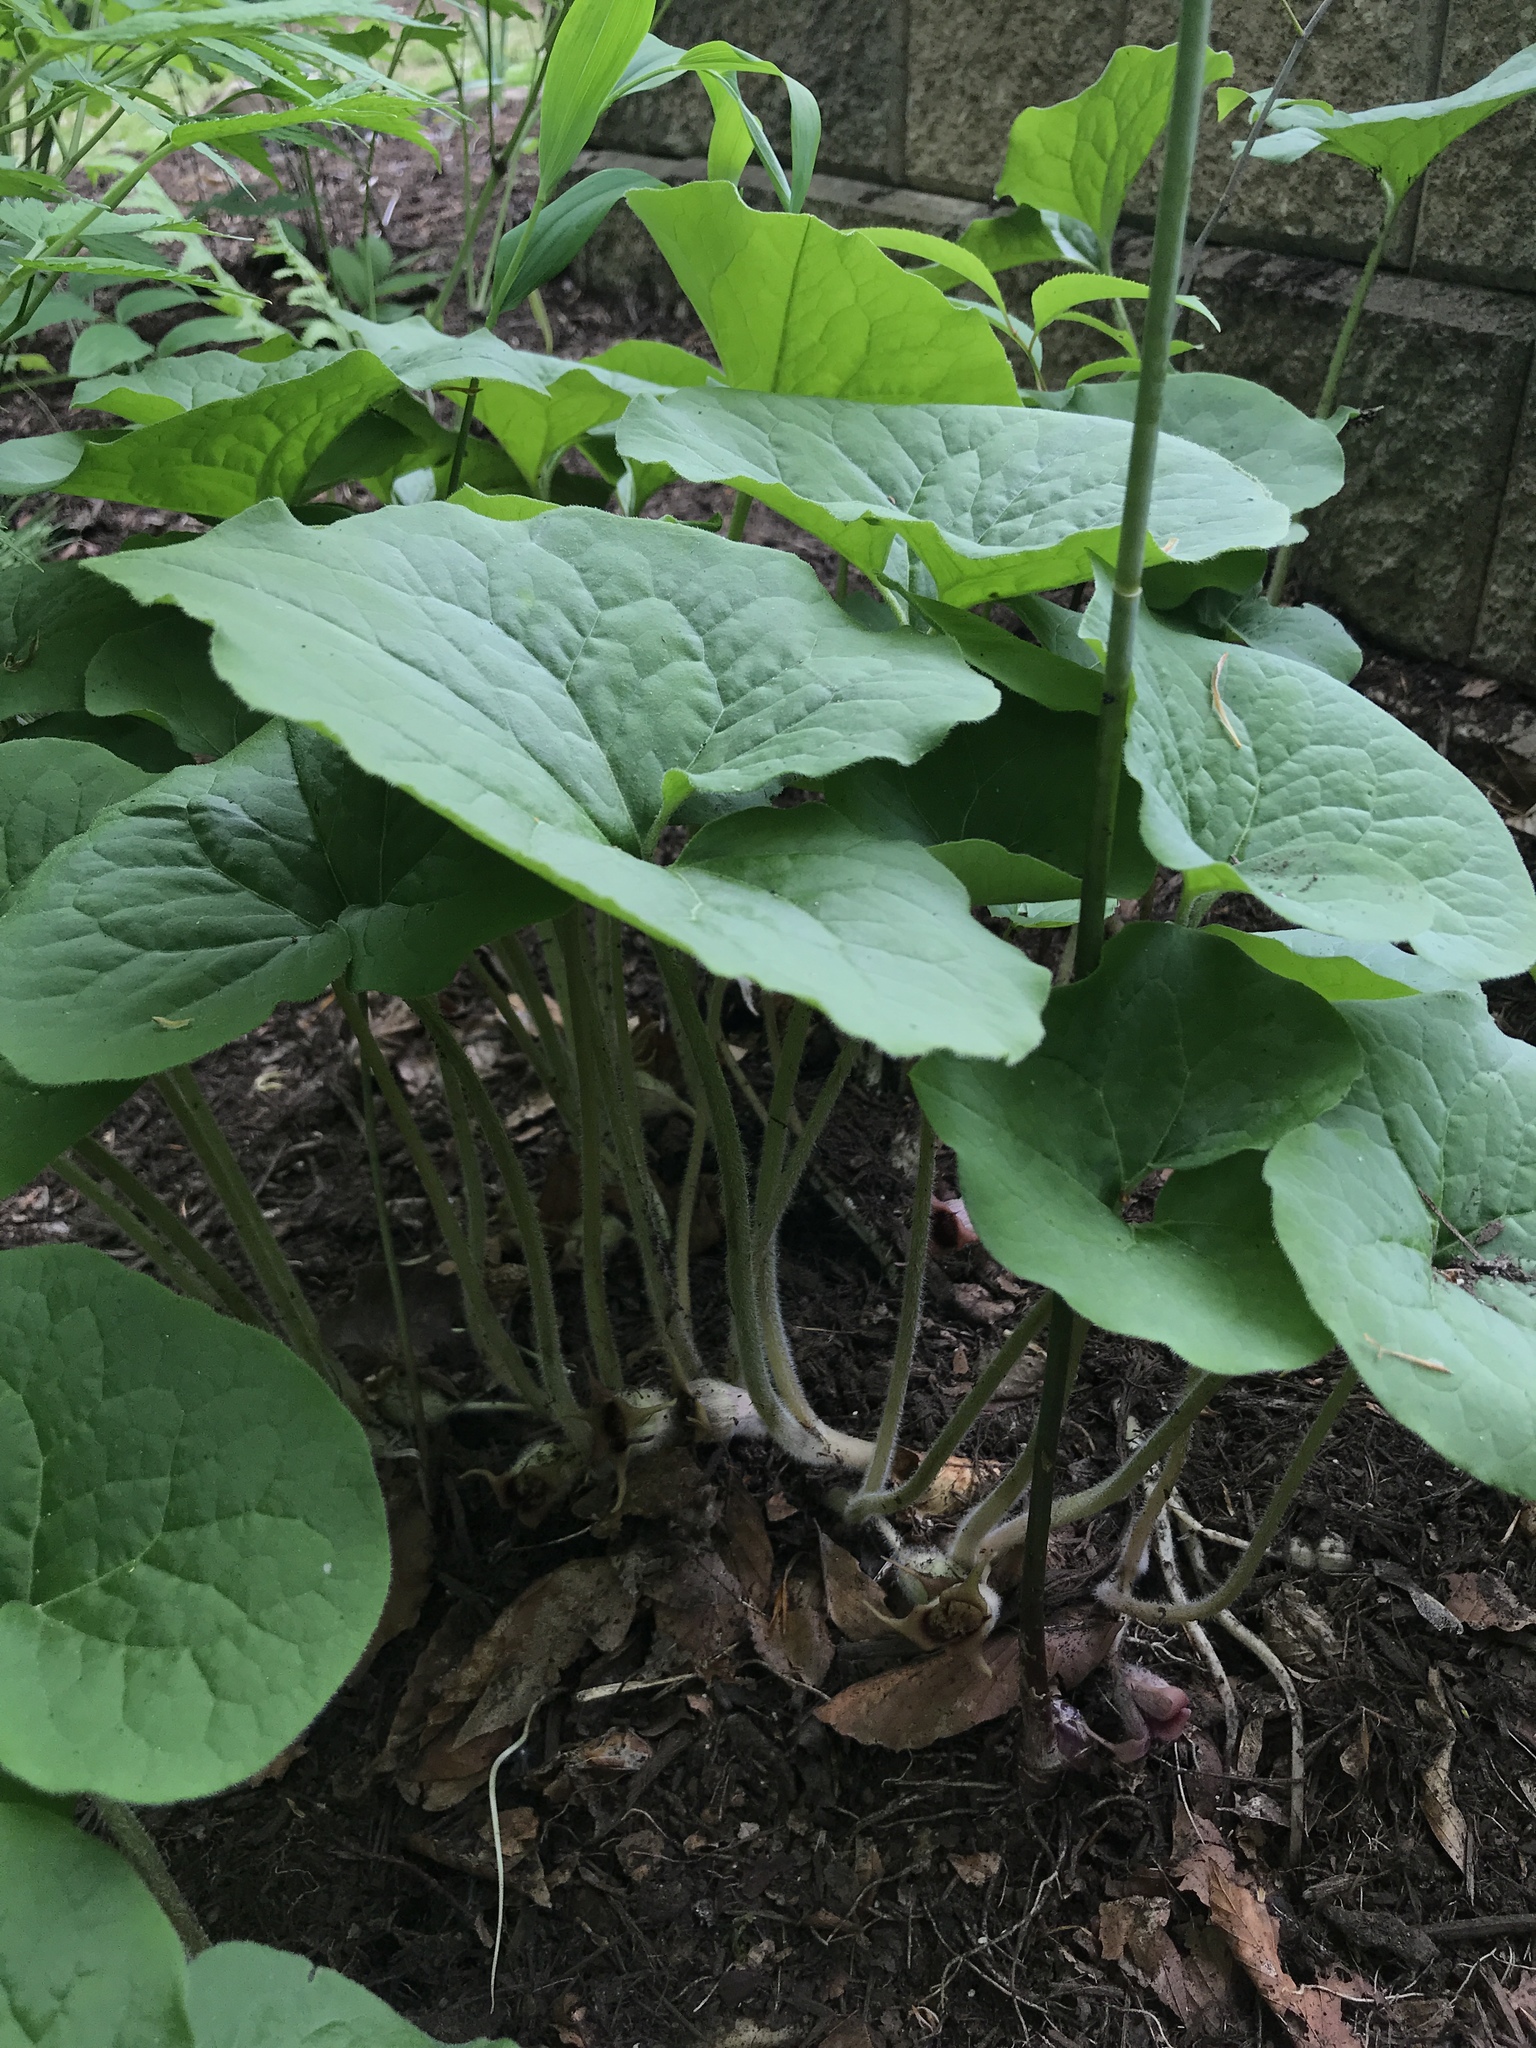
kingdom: Plantae
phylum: Tracheophyta
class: Magnoliopsida
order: Piperales
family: Aristolochiaceae
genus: Asarum
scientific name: Asarum canadense
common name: Wild ginger
